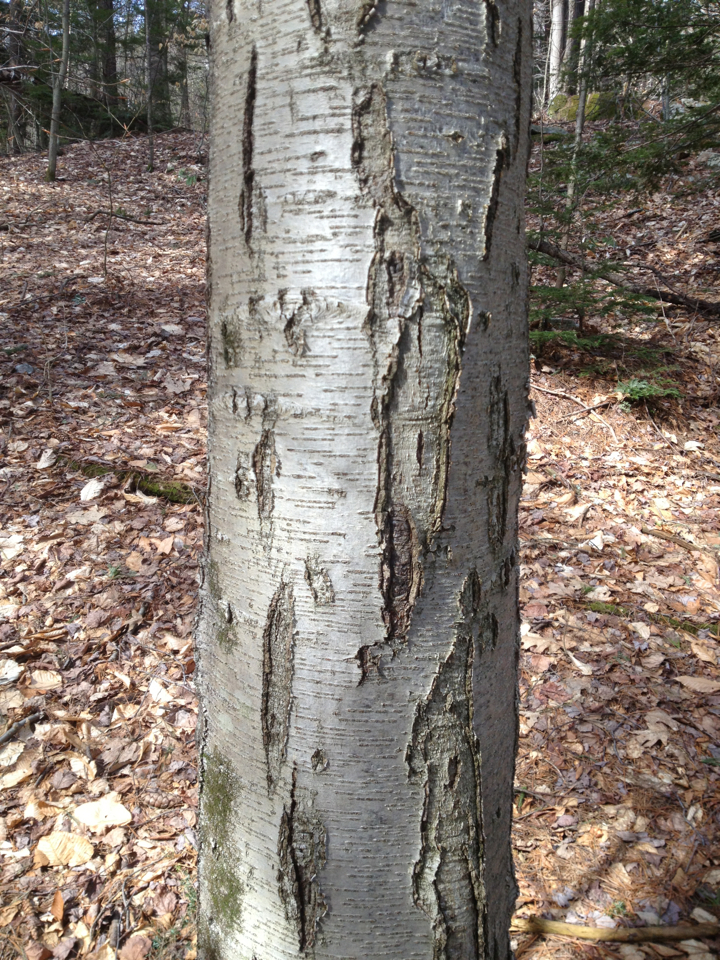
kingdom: Plantae
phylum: Tracheophyta
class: Magnoliopsida
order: Fagales
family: Betulaceae
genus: Betula
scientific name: Betula lenta
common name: Black birch
